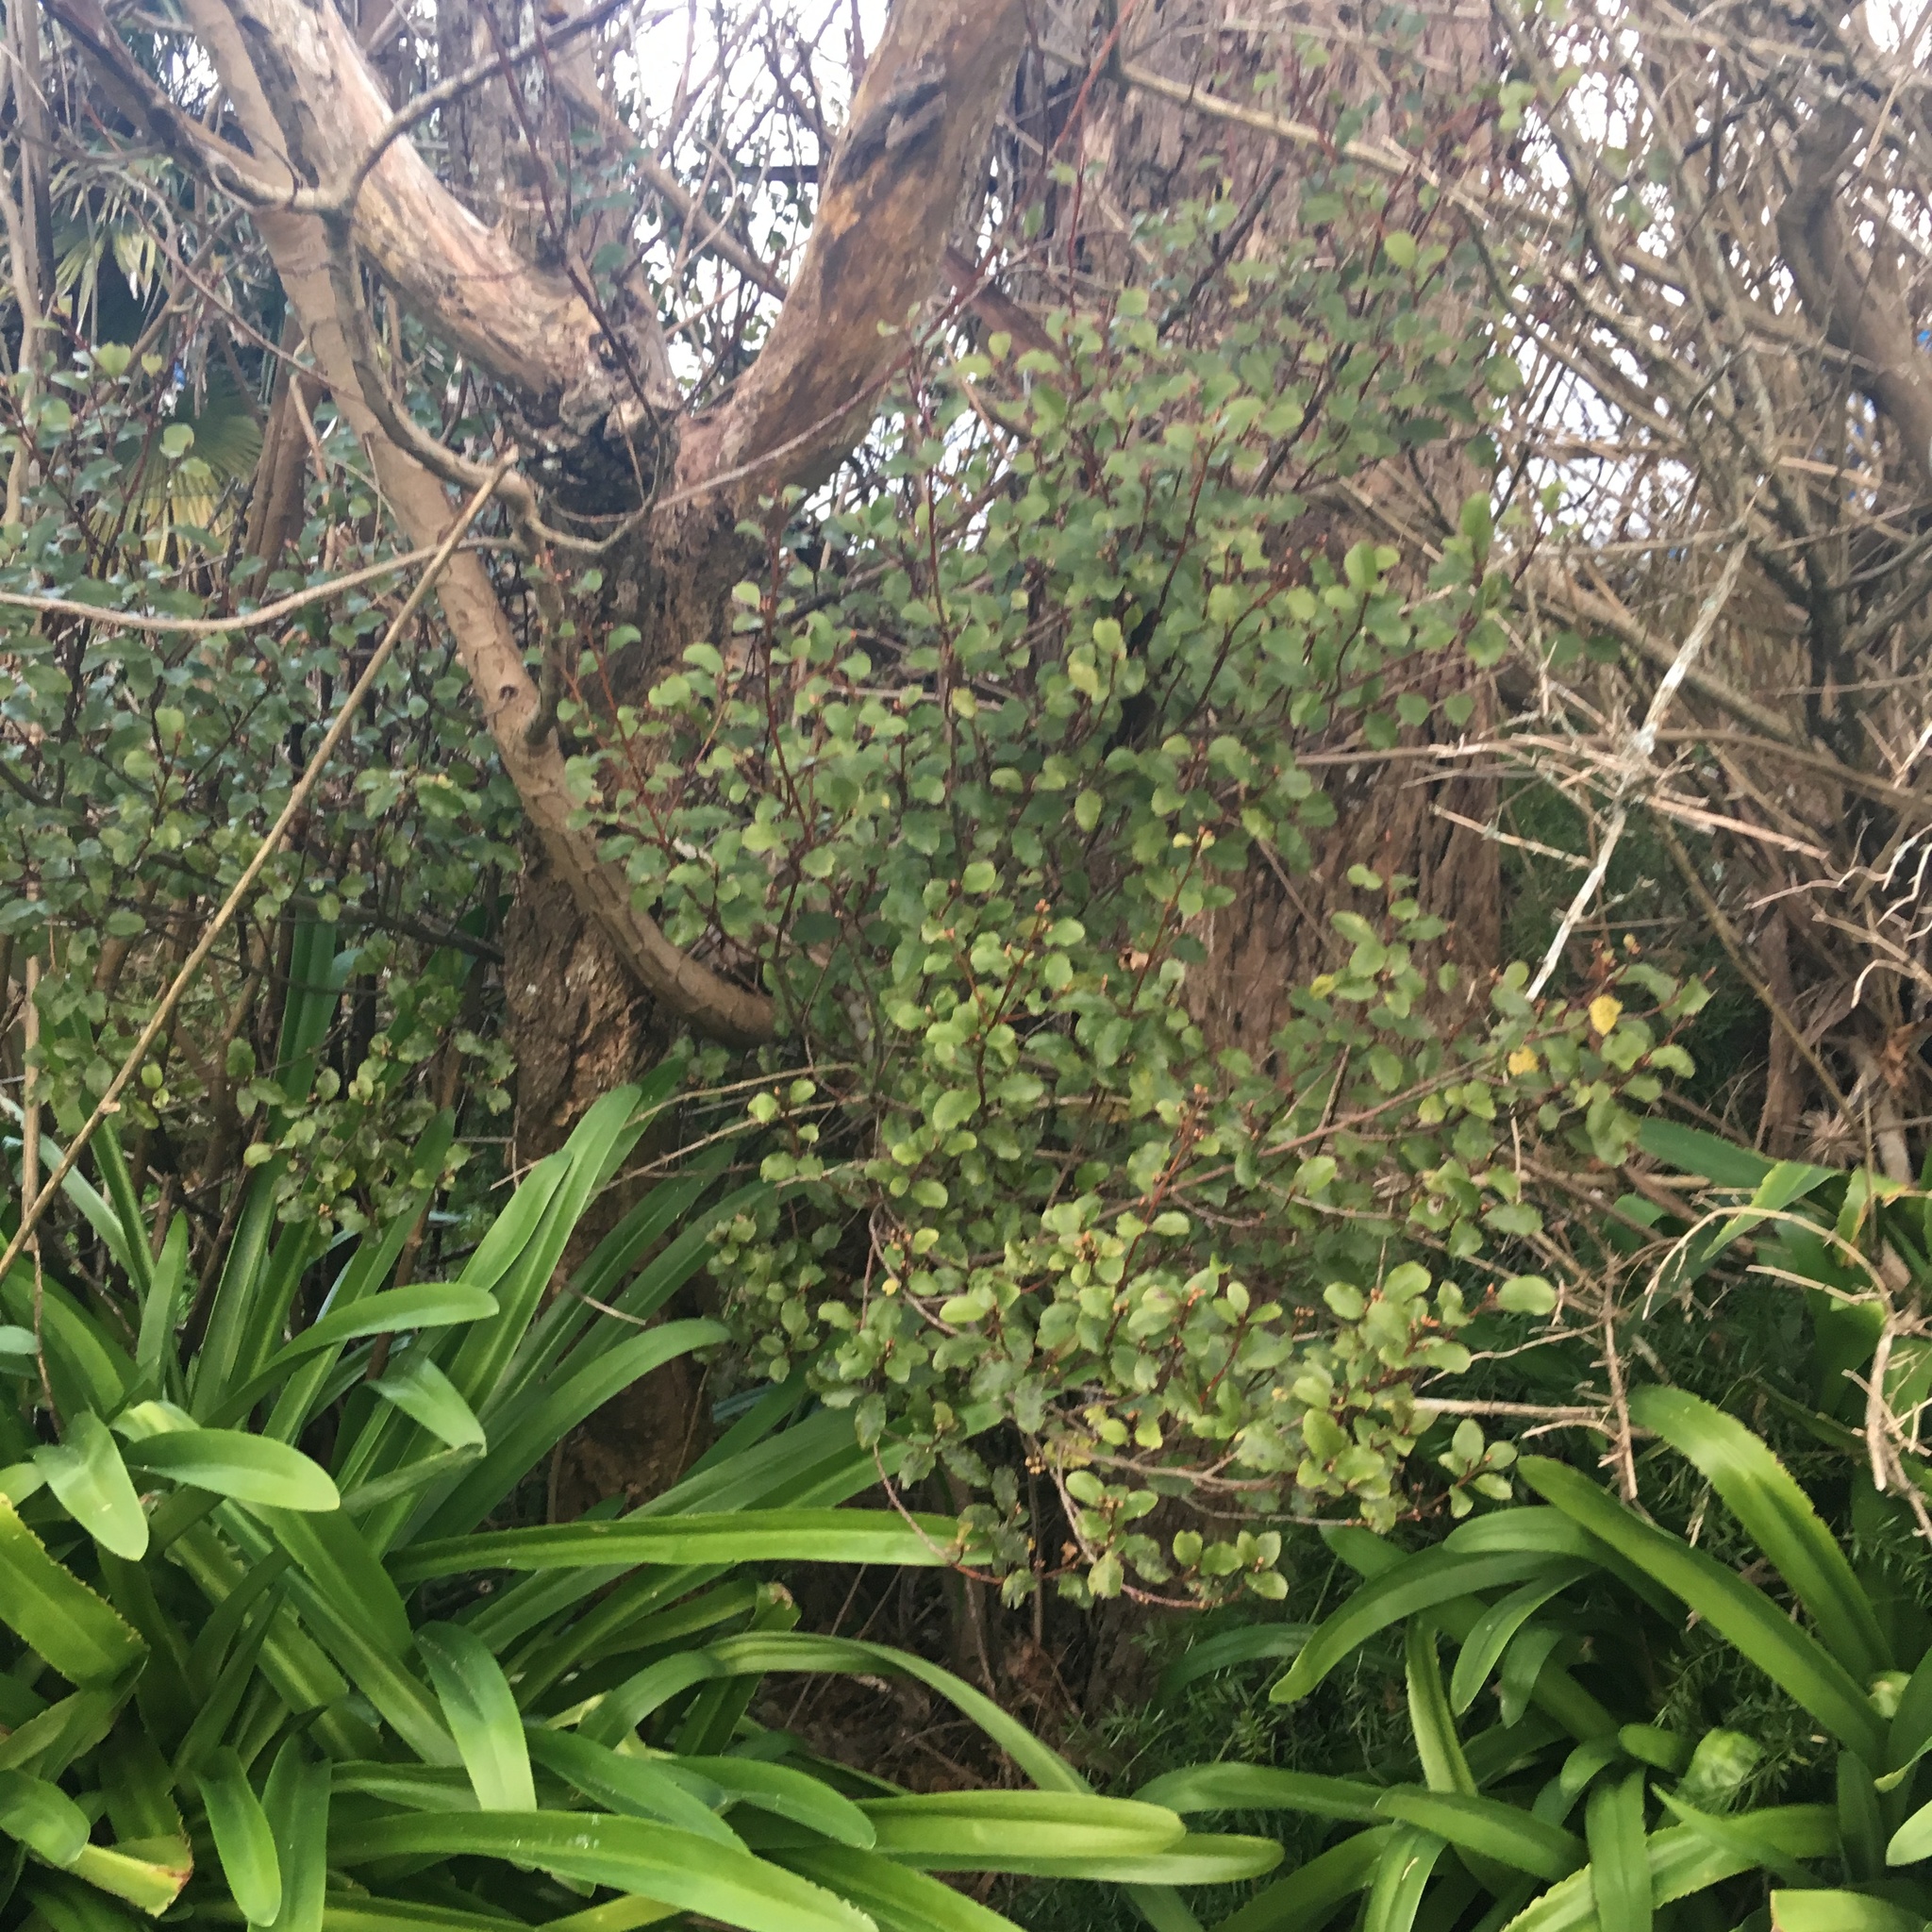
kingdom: Plantae
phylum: Tracheophyta
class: Magnoliopsida
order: Ericales
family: Primulaceae
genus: Myrsine
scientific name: Myrsine australis
